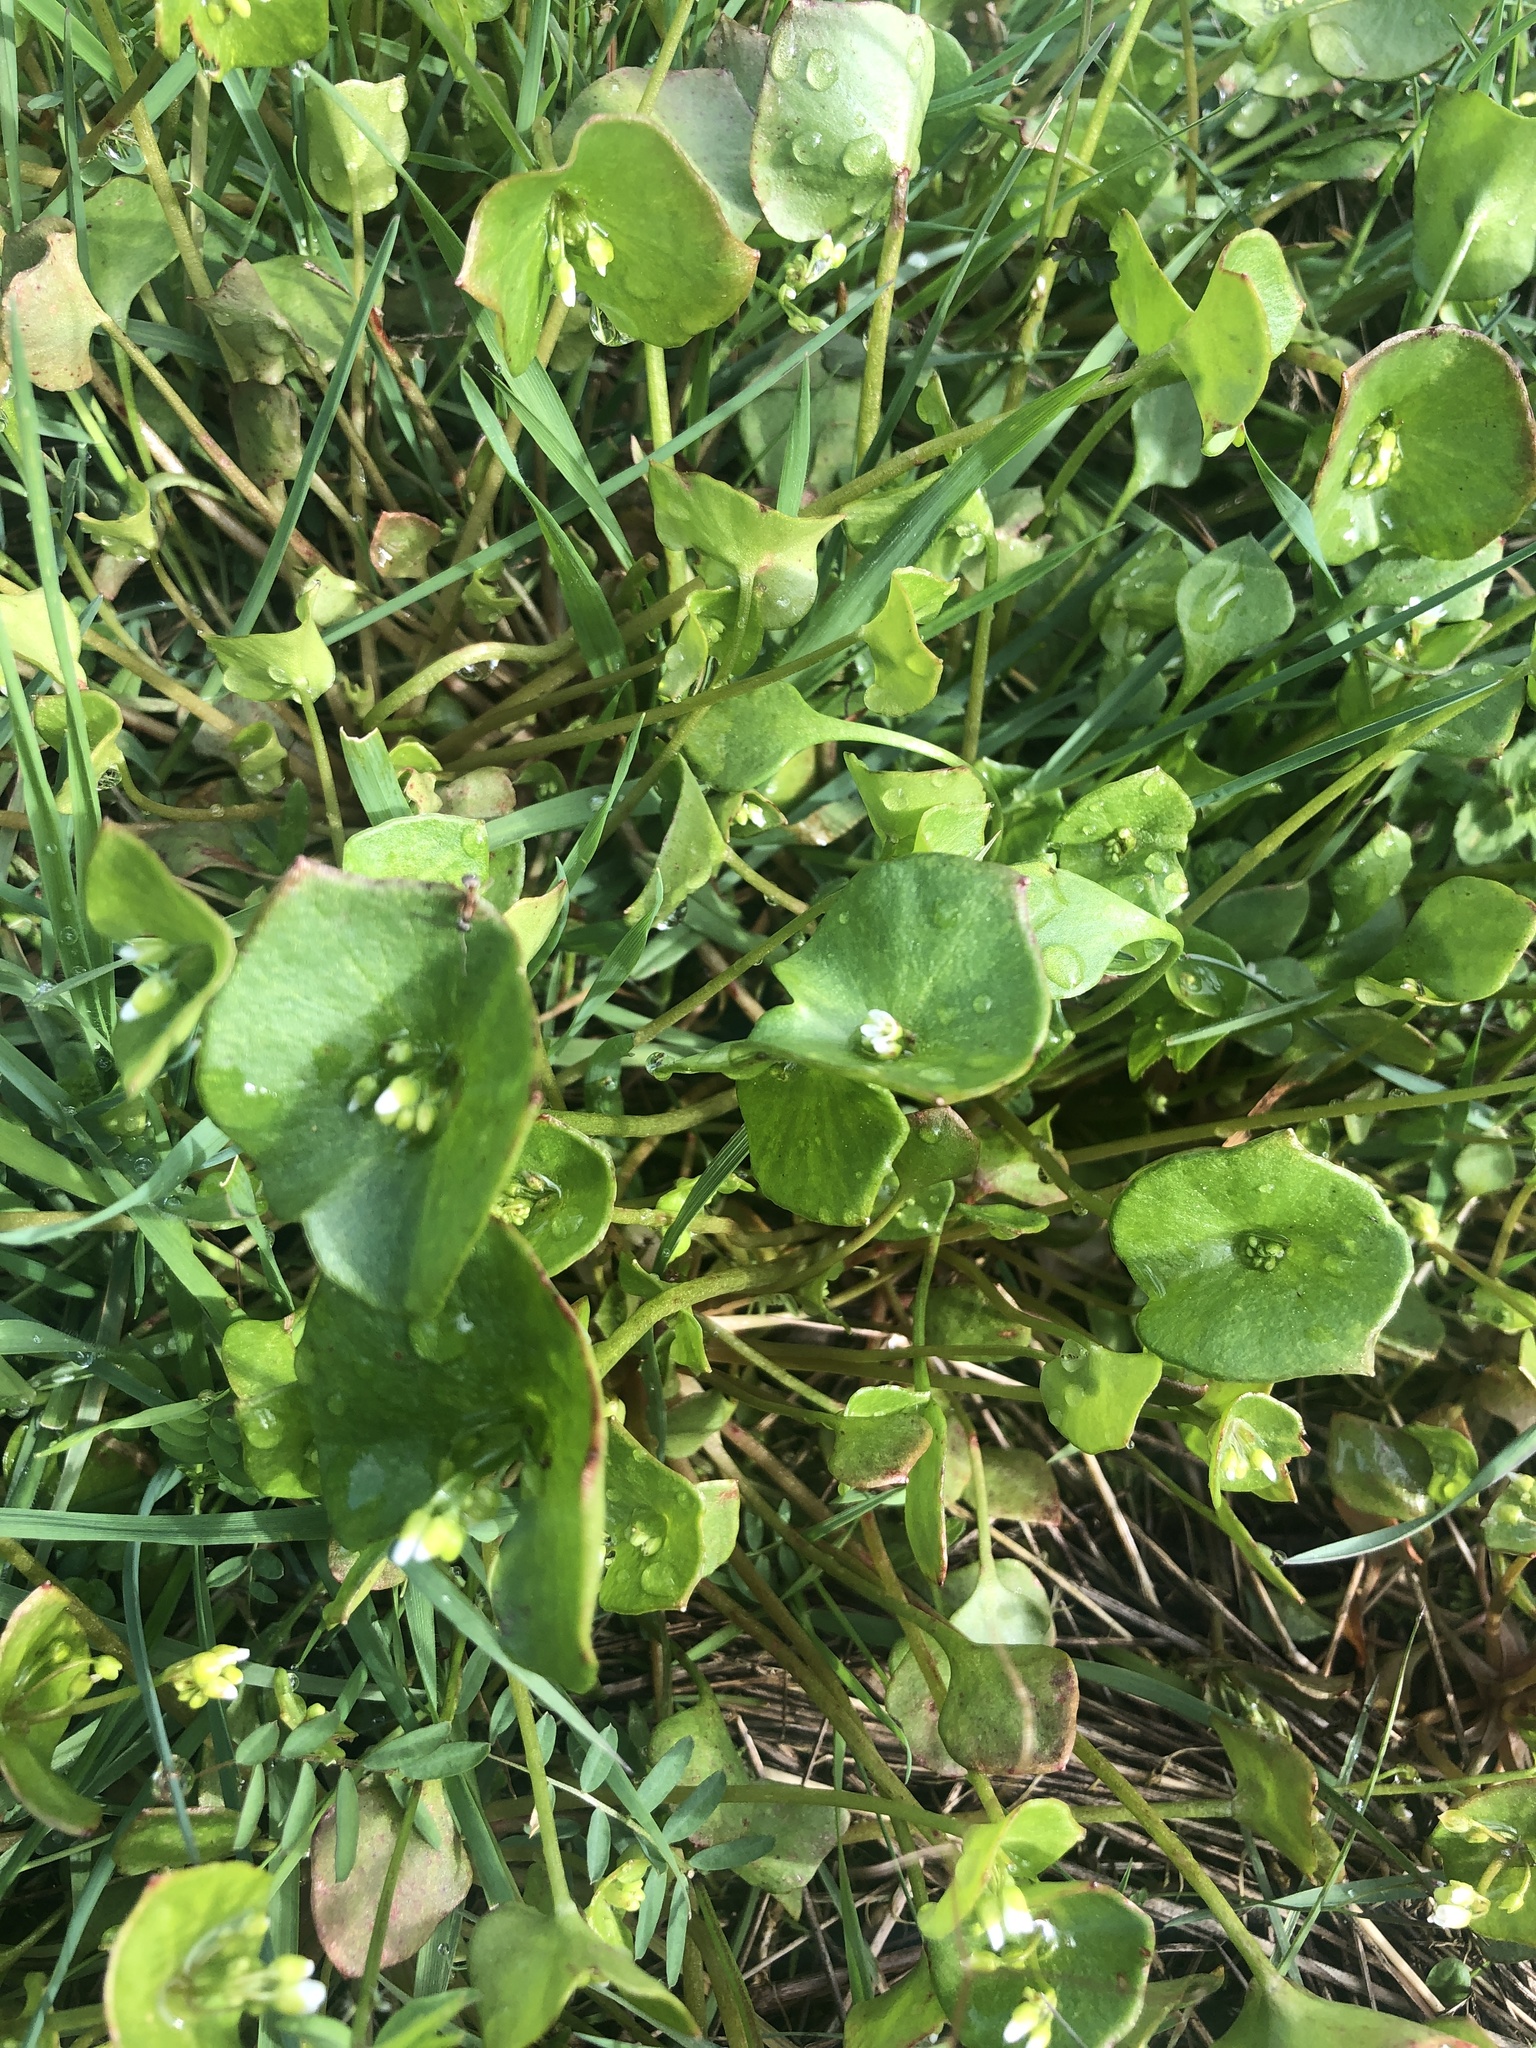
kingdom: Plantae
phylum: Tracheophyta
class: Magnoliopsida
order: Caryophyllales
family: Montiaceae
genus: Claytonia
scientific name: Claytonia perfoliata
